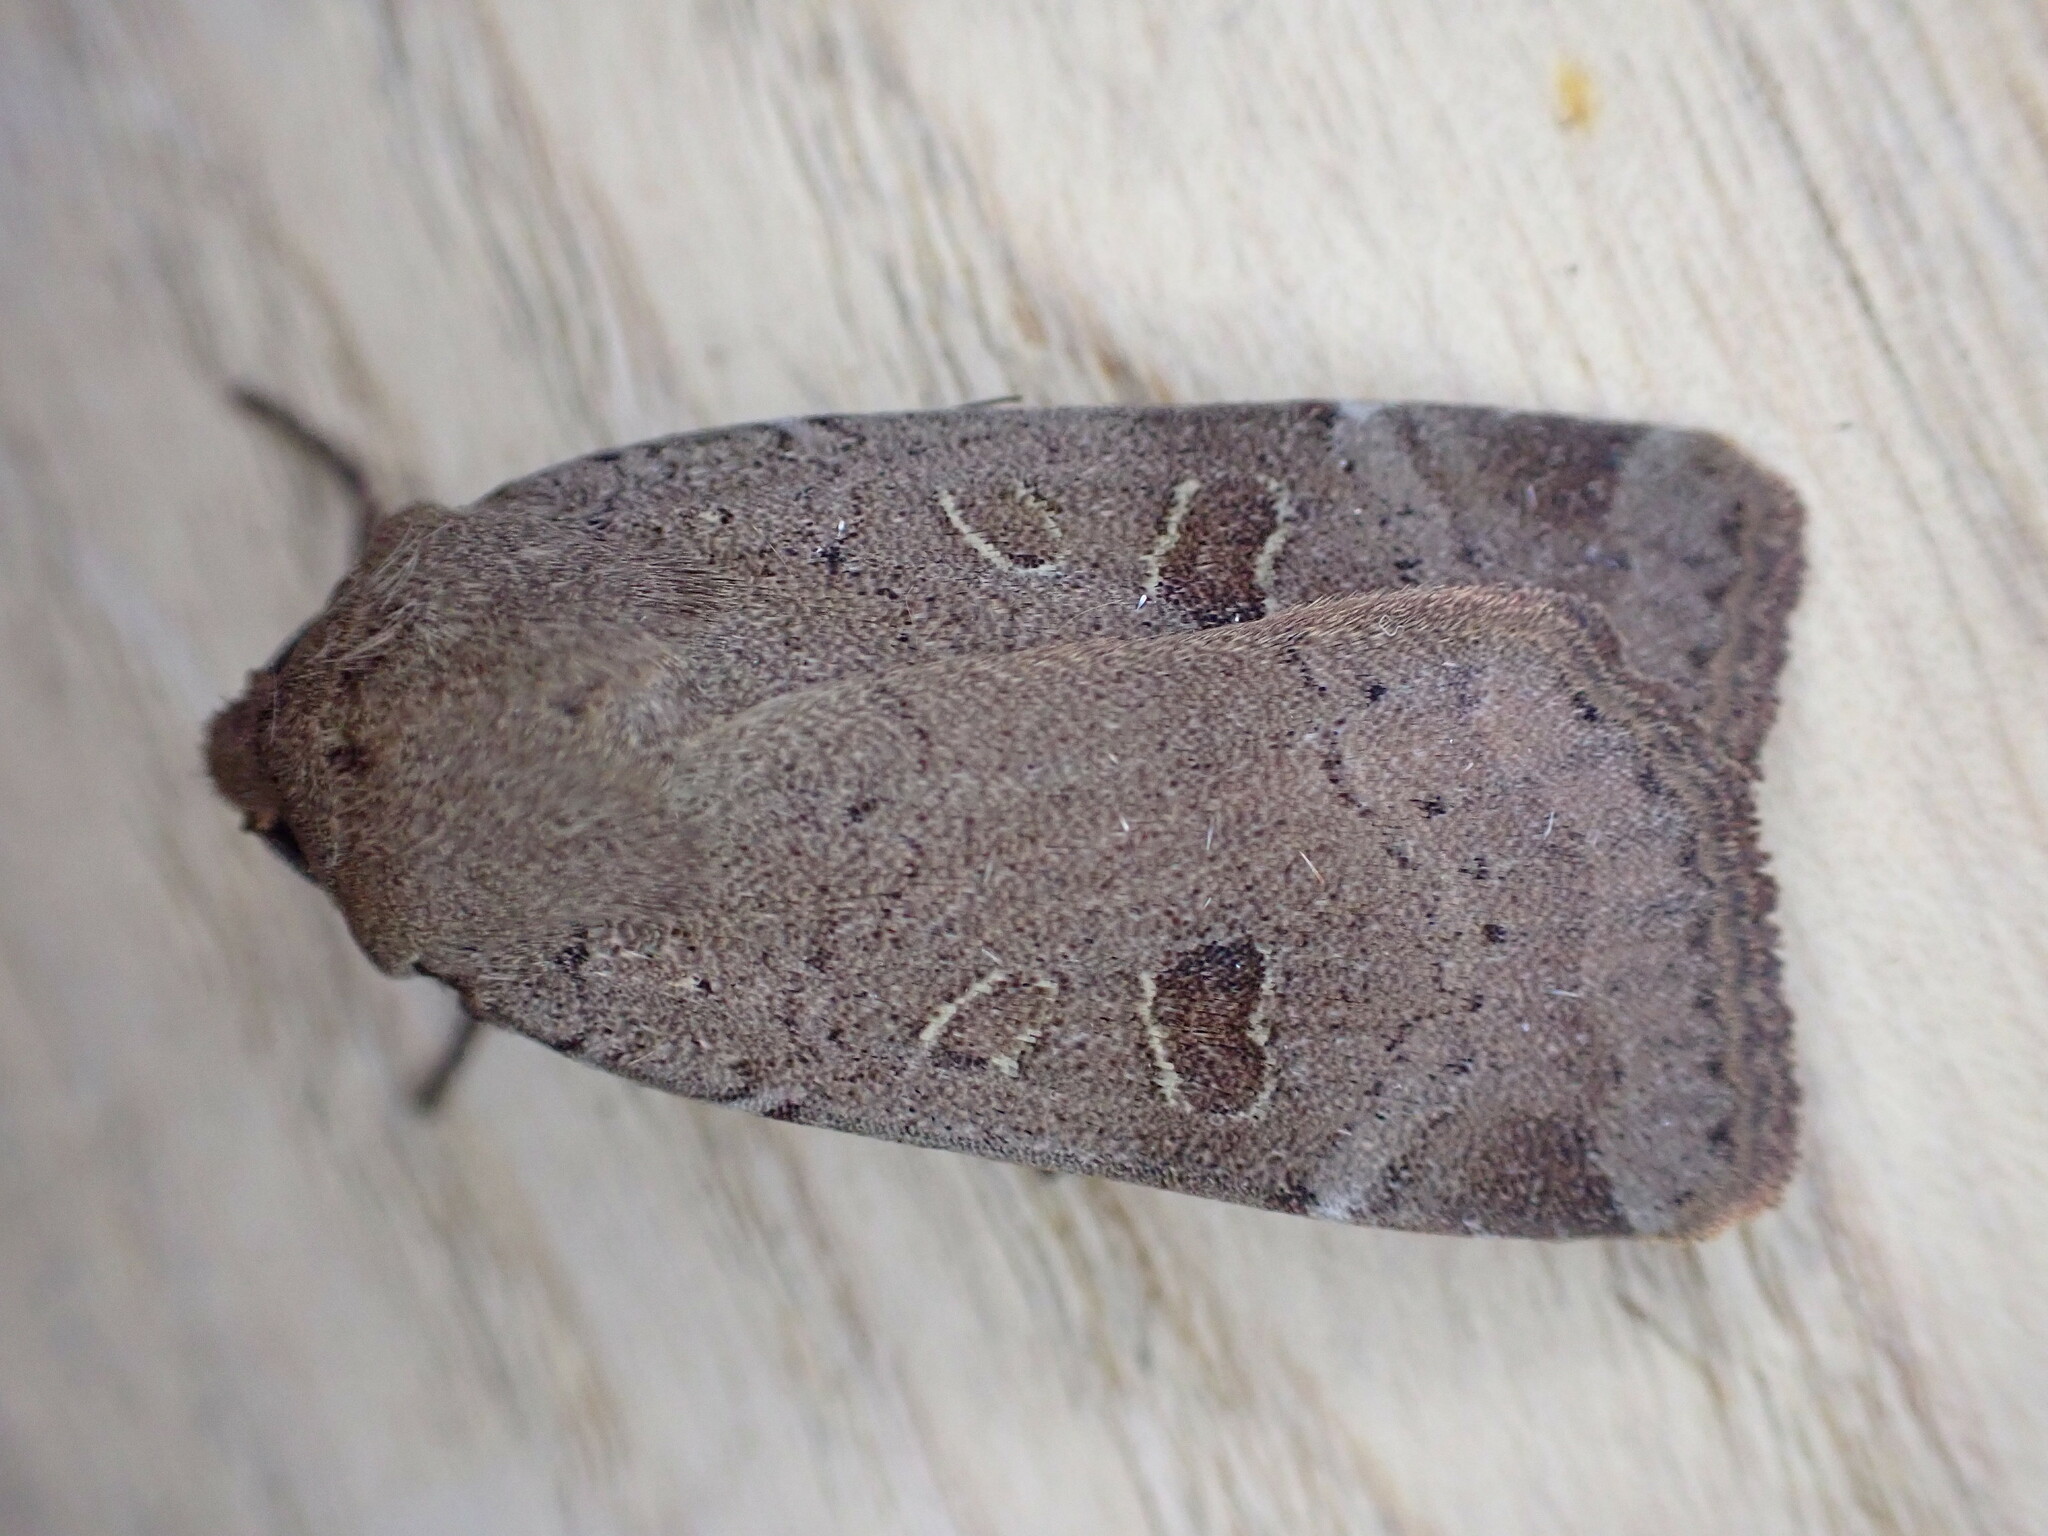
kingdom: Animalia
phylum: Arthropoda
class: Insecta
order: Lepidoptera
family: Noctuidae
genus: Noctua
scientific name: Noctua comes
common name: Lesser yellow underwing
